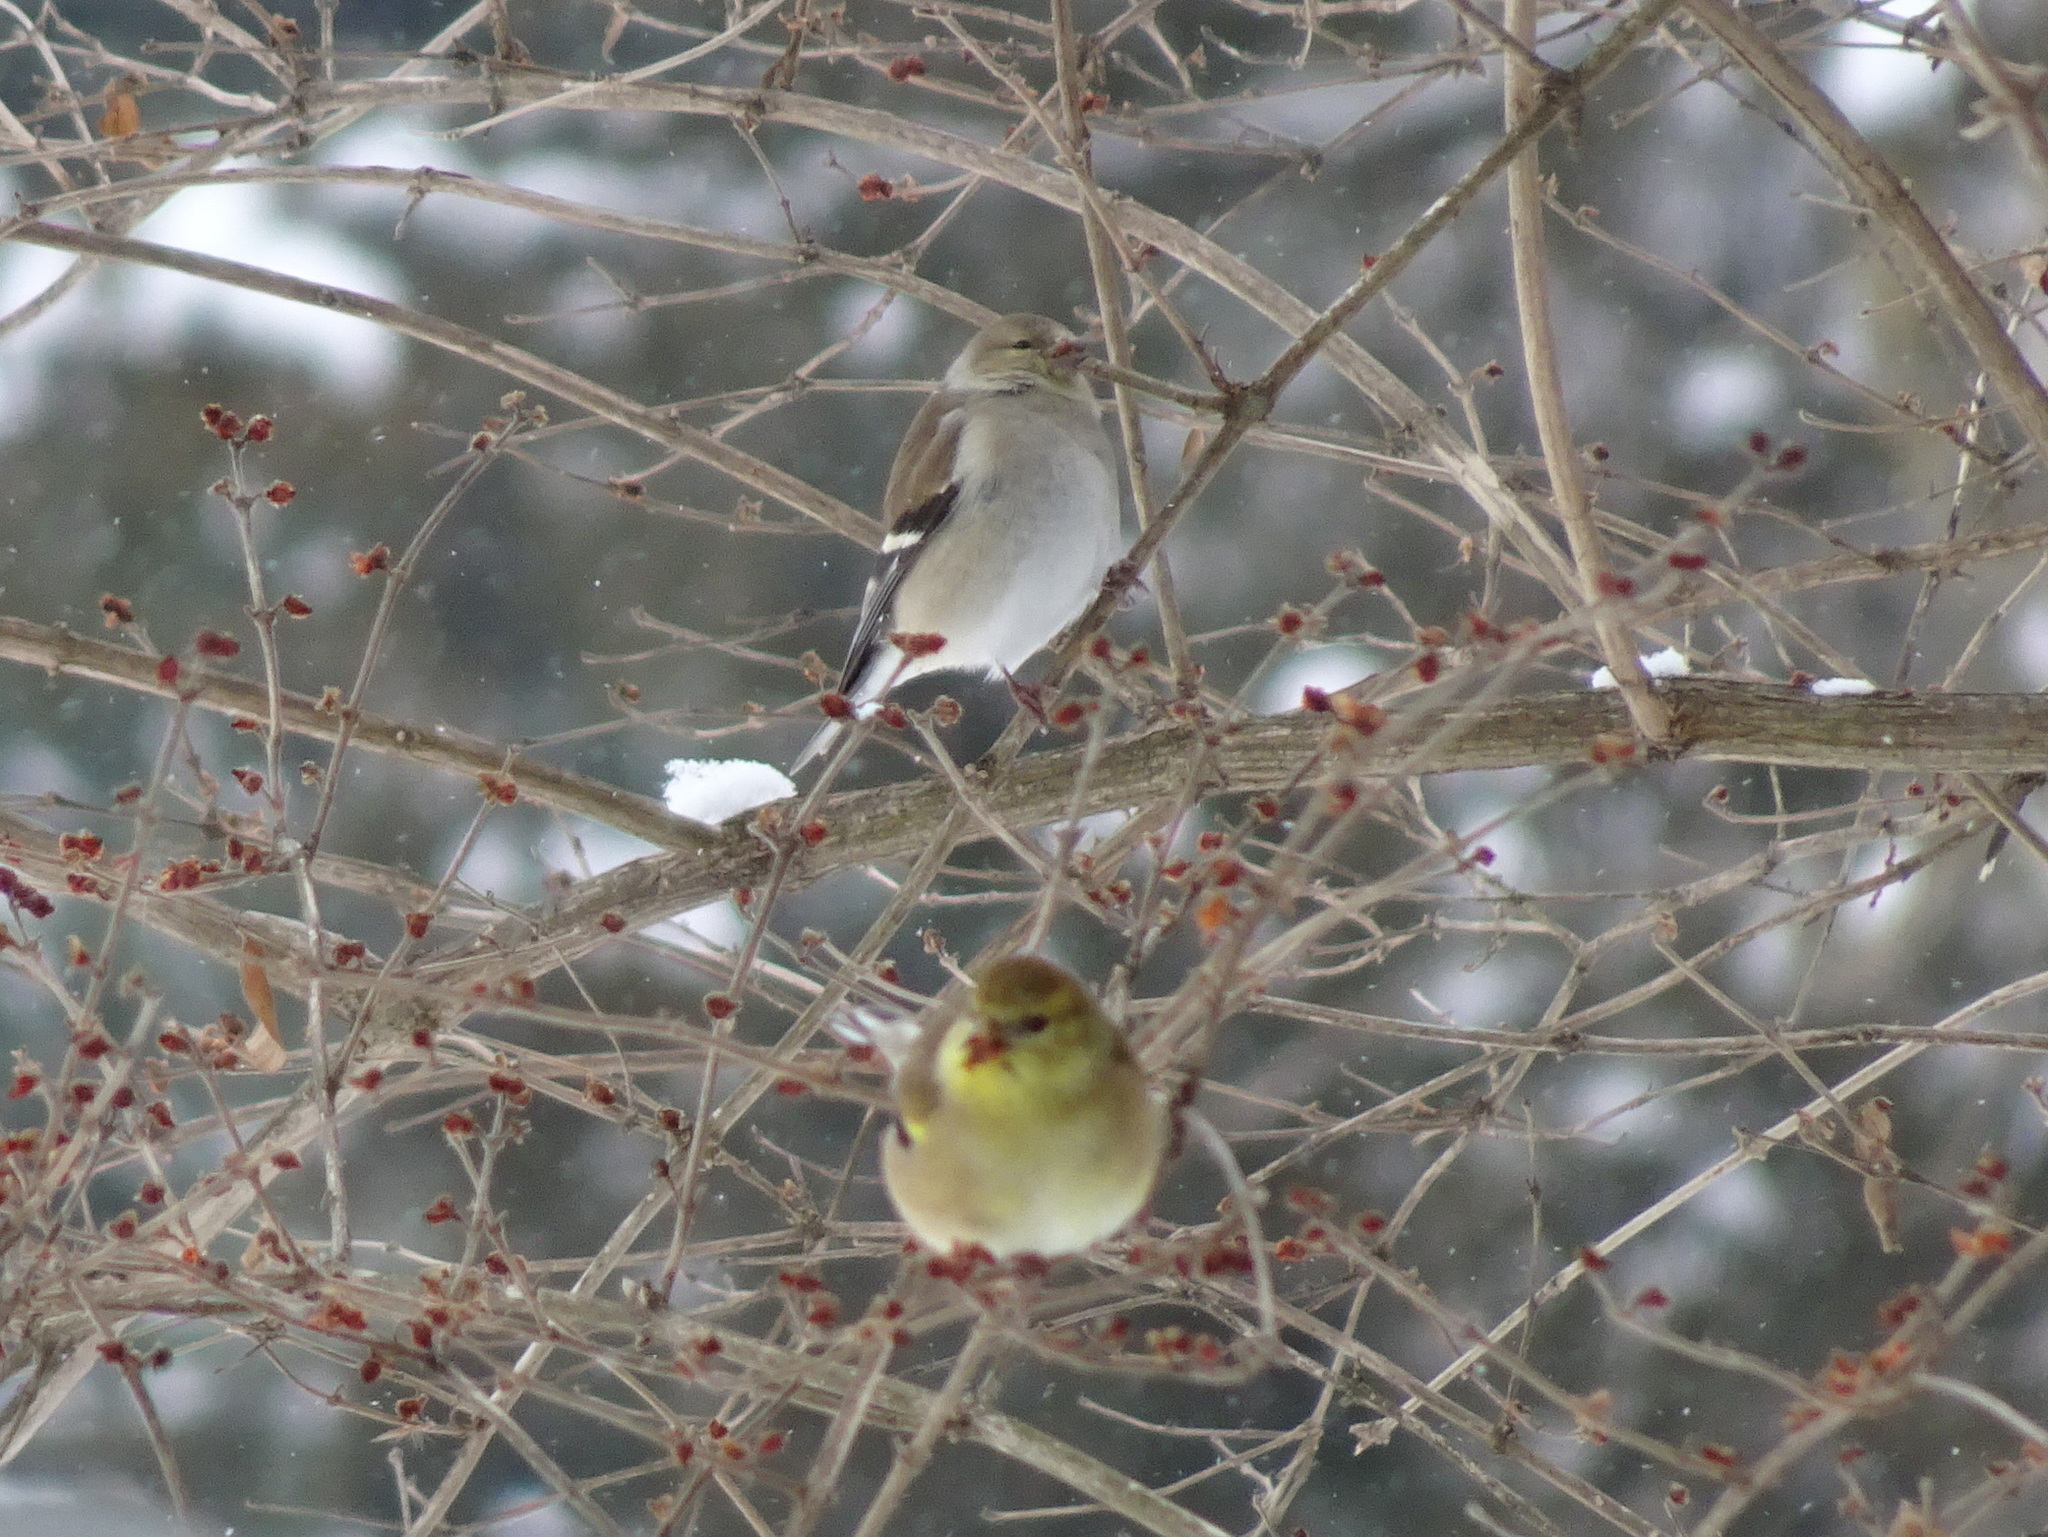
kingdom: Animalia
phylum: Chordata
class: Aves
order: Passeriformes
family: Fringillidae
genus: Spinus
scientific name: Spinus tristis
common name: American goldfinch
